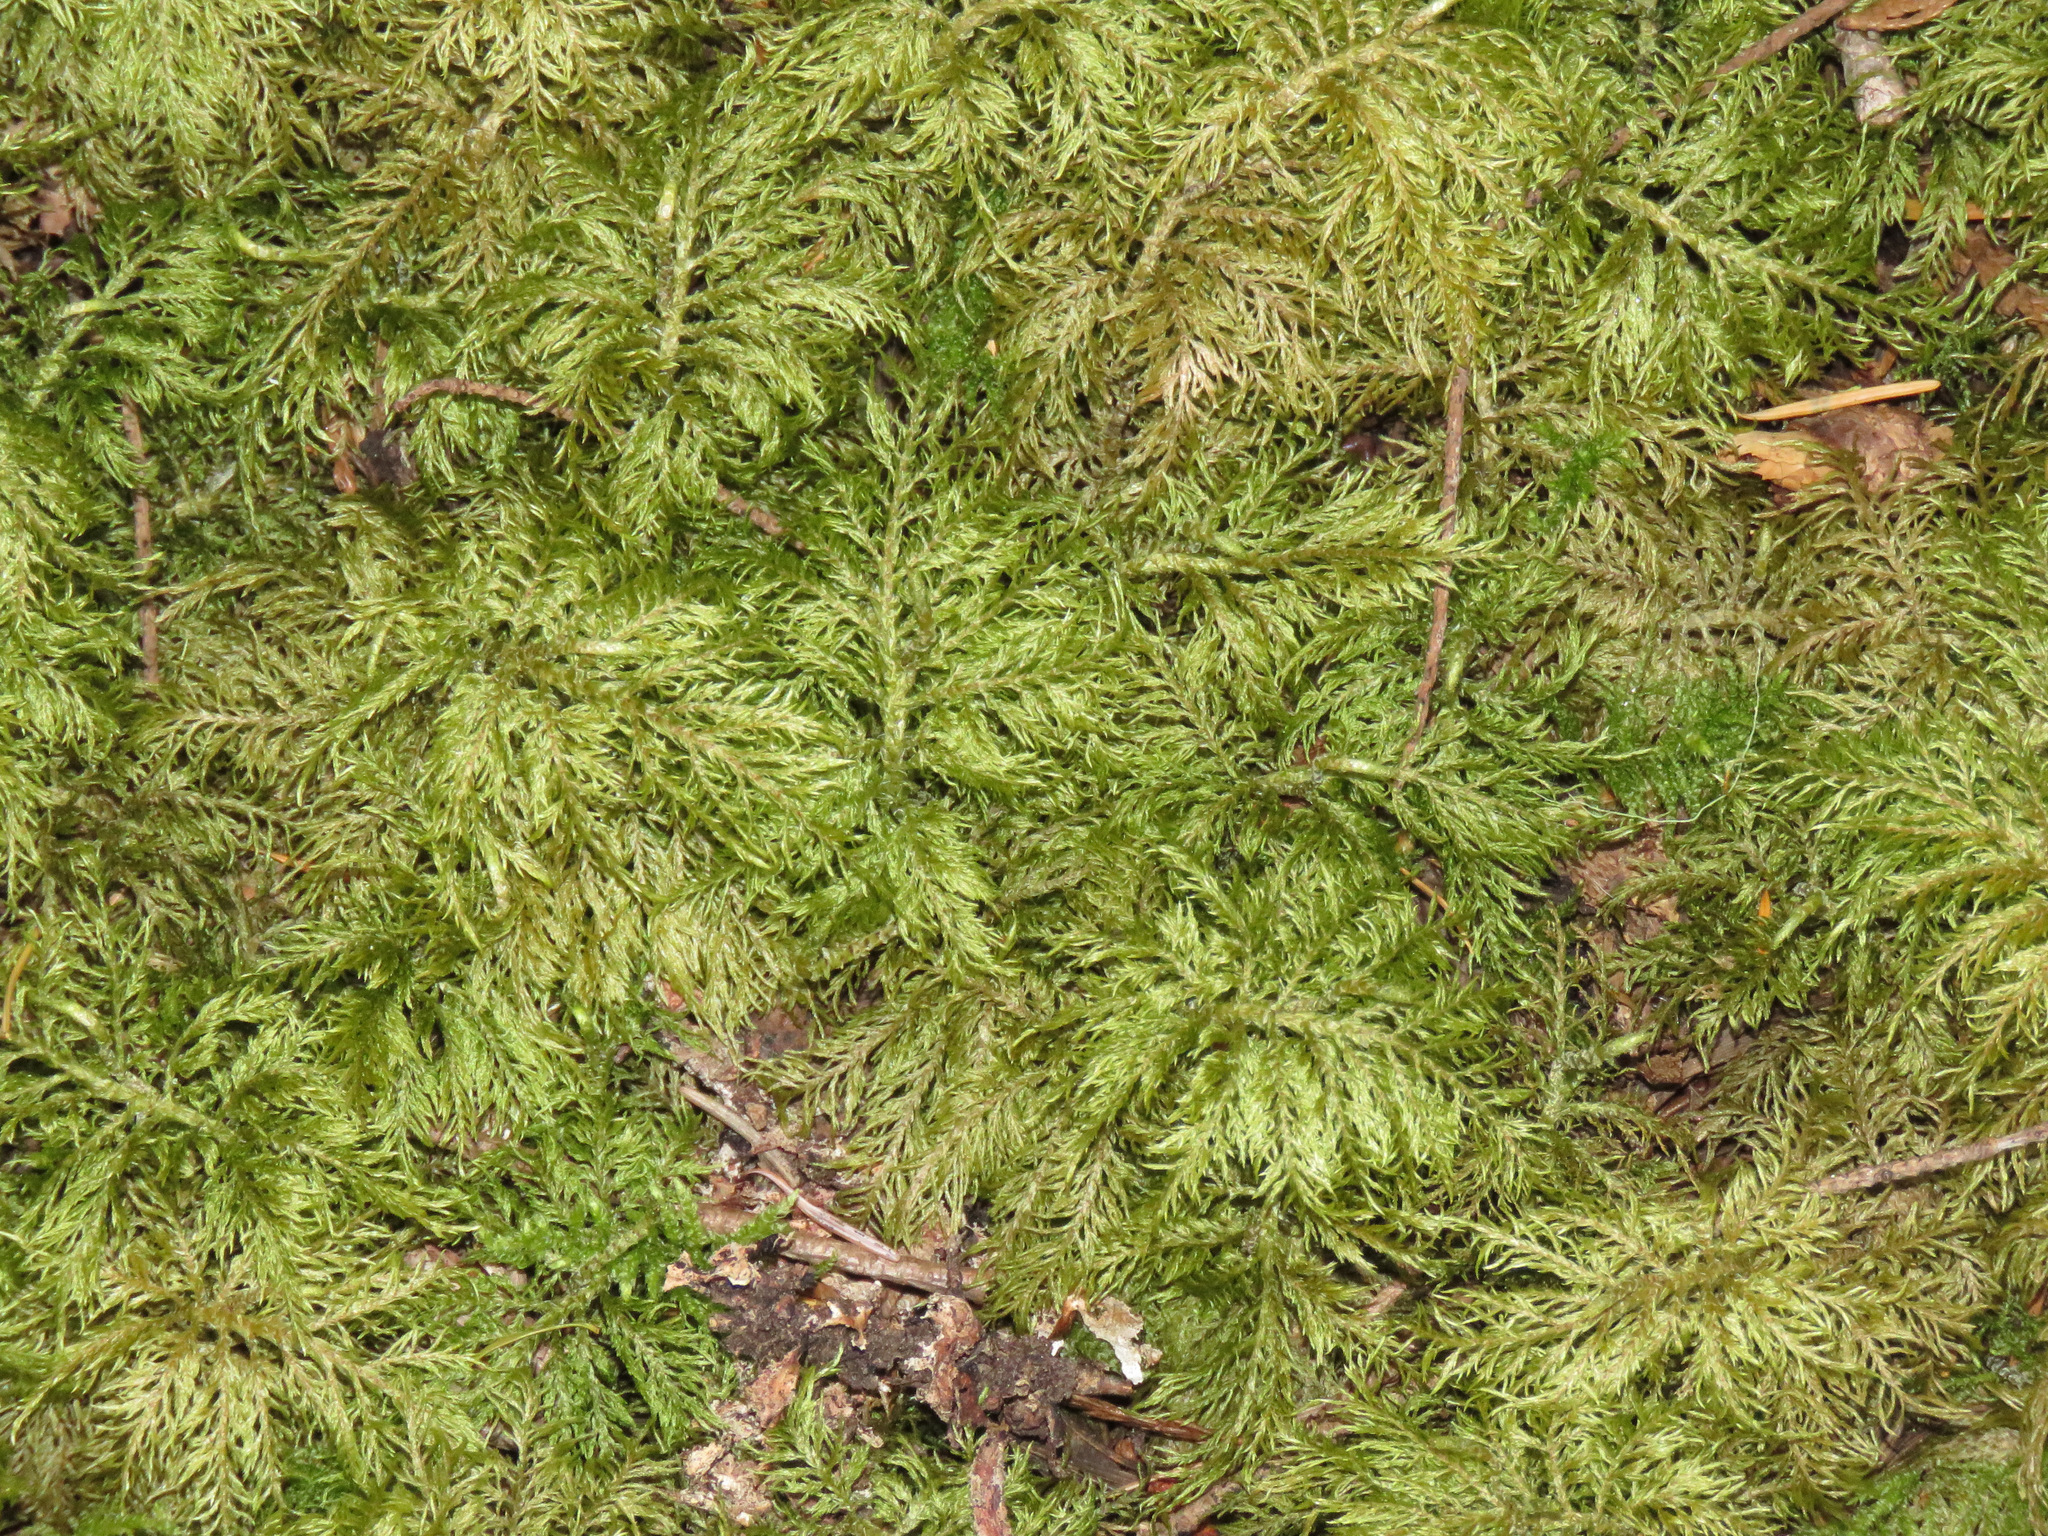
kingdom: Plantae
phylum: Bryophyta
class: Bryopsida
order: Hypnales
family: Hylocomiaceae
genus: Hylocomium
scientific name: Hylocomium splendens
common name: Stairstep moss
